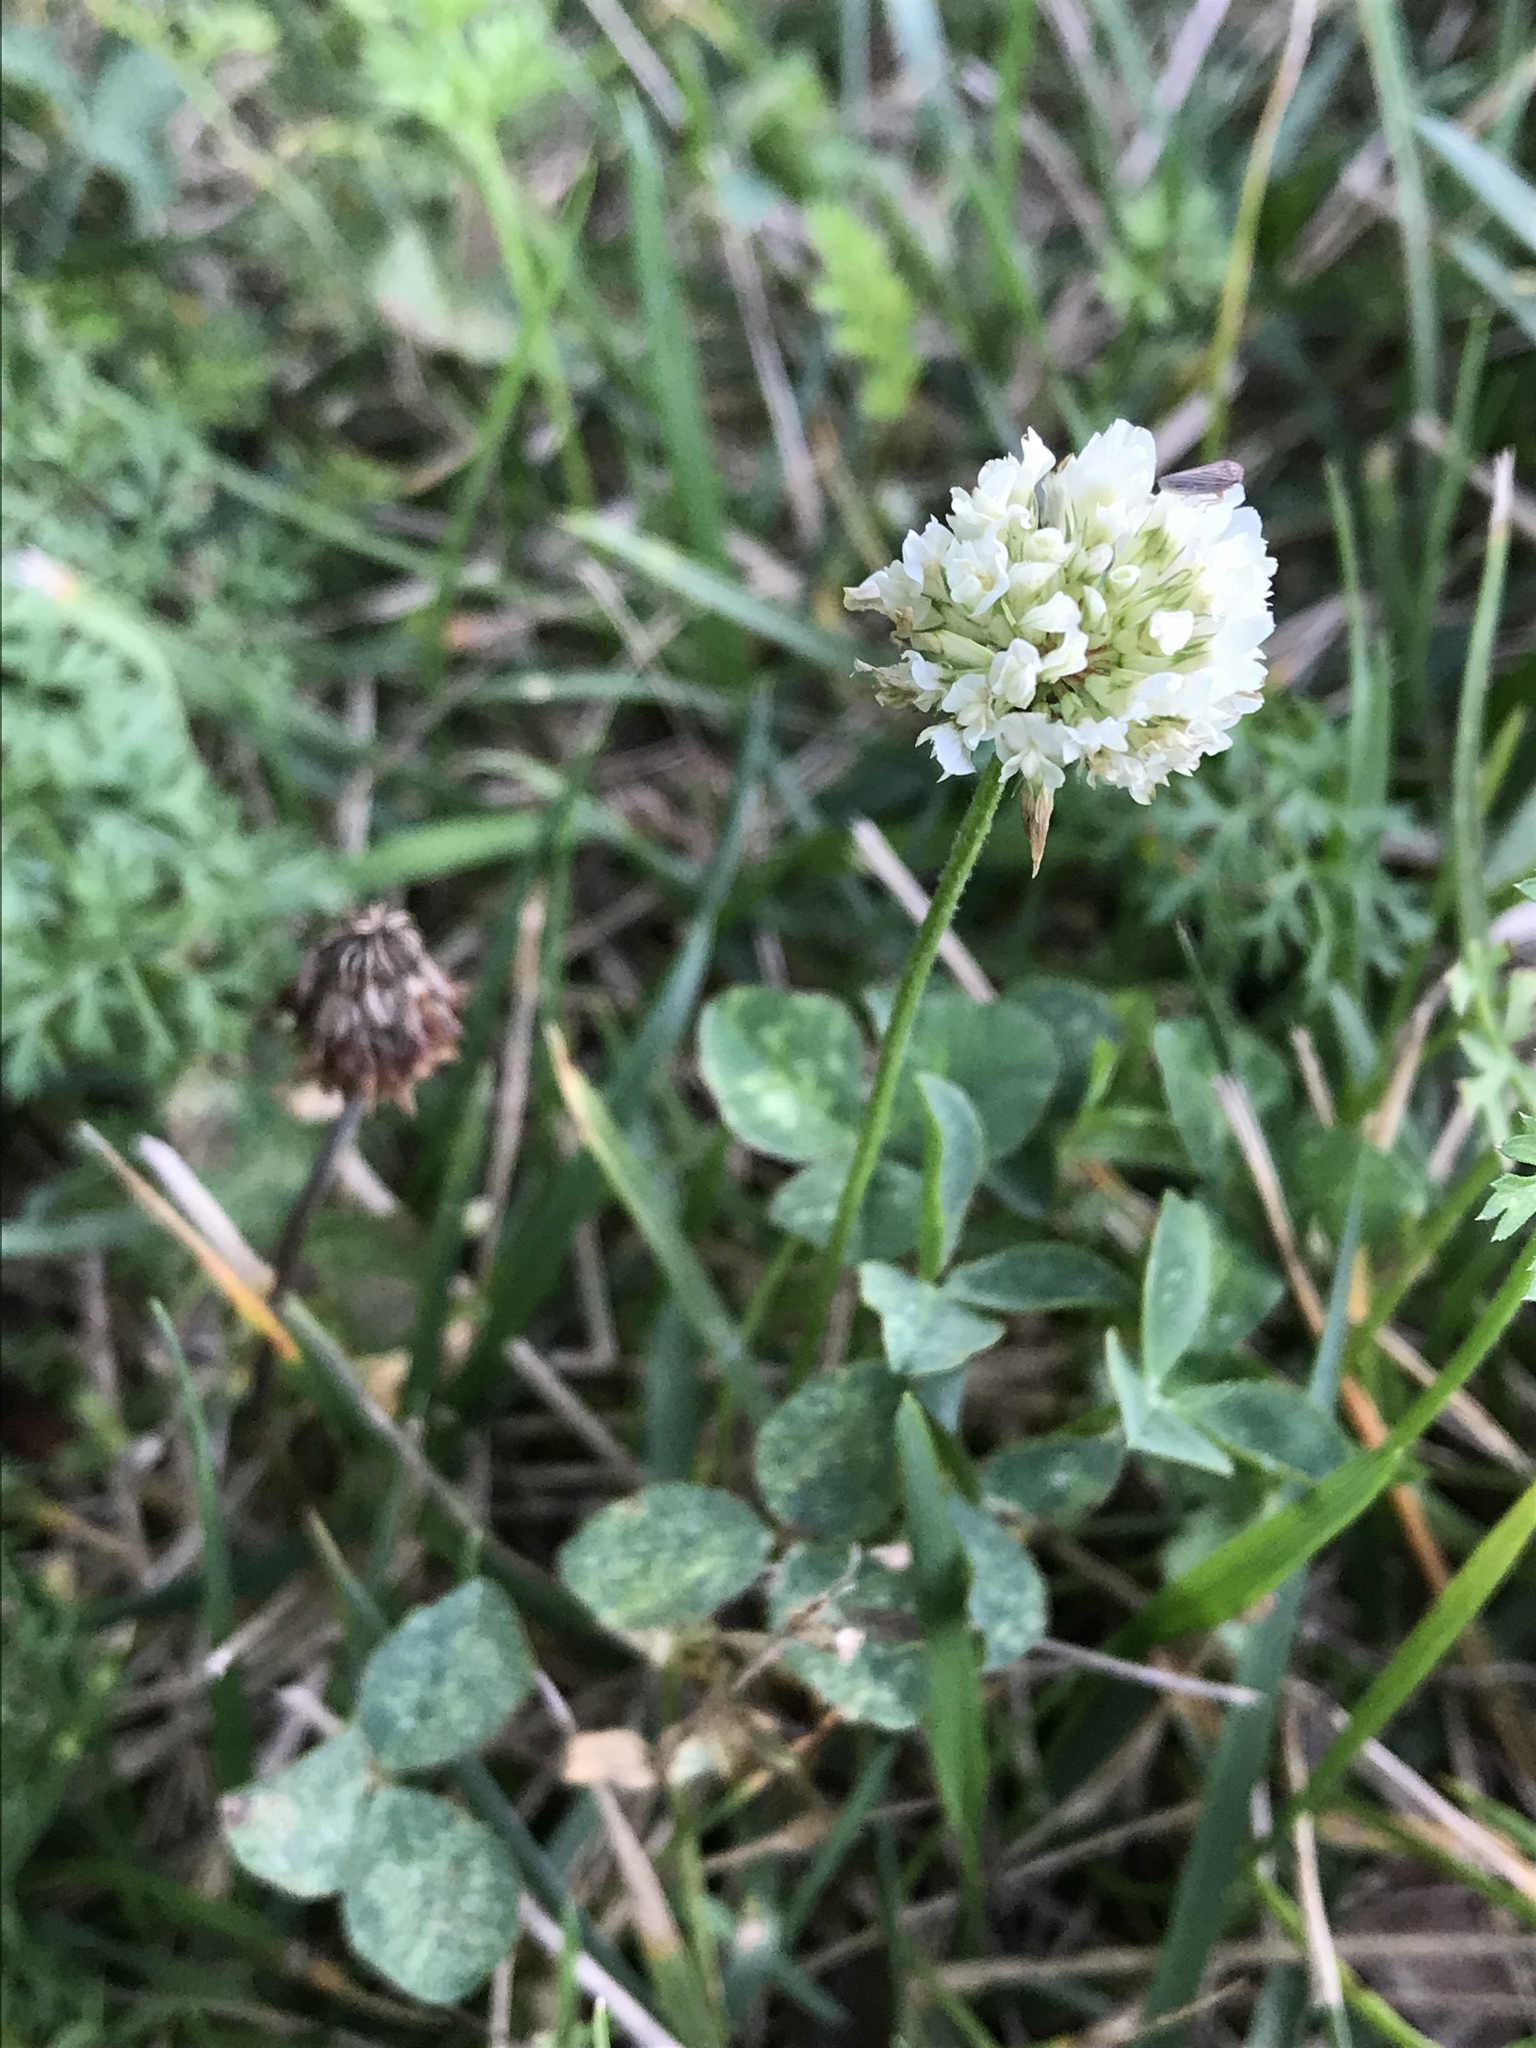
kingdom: Plantae
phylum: Tracheophyta
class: Magnoliopsida
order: Fabales
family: Fabaceae
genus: Trifolium
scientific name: Trifolium repens
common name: White clover
